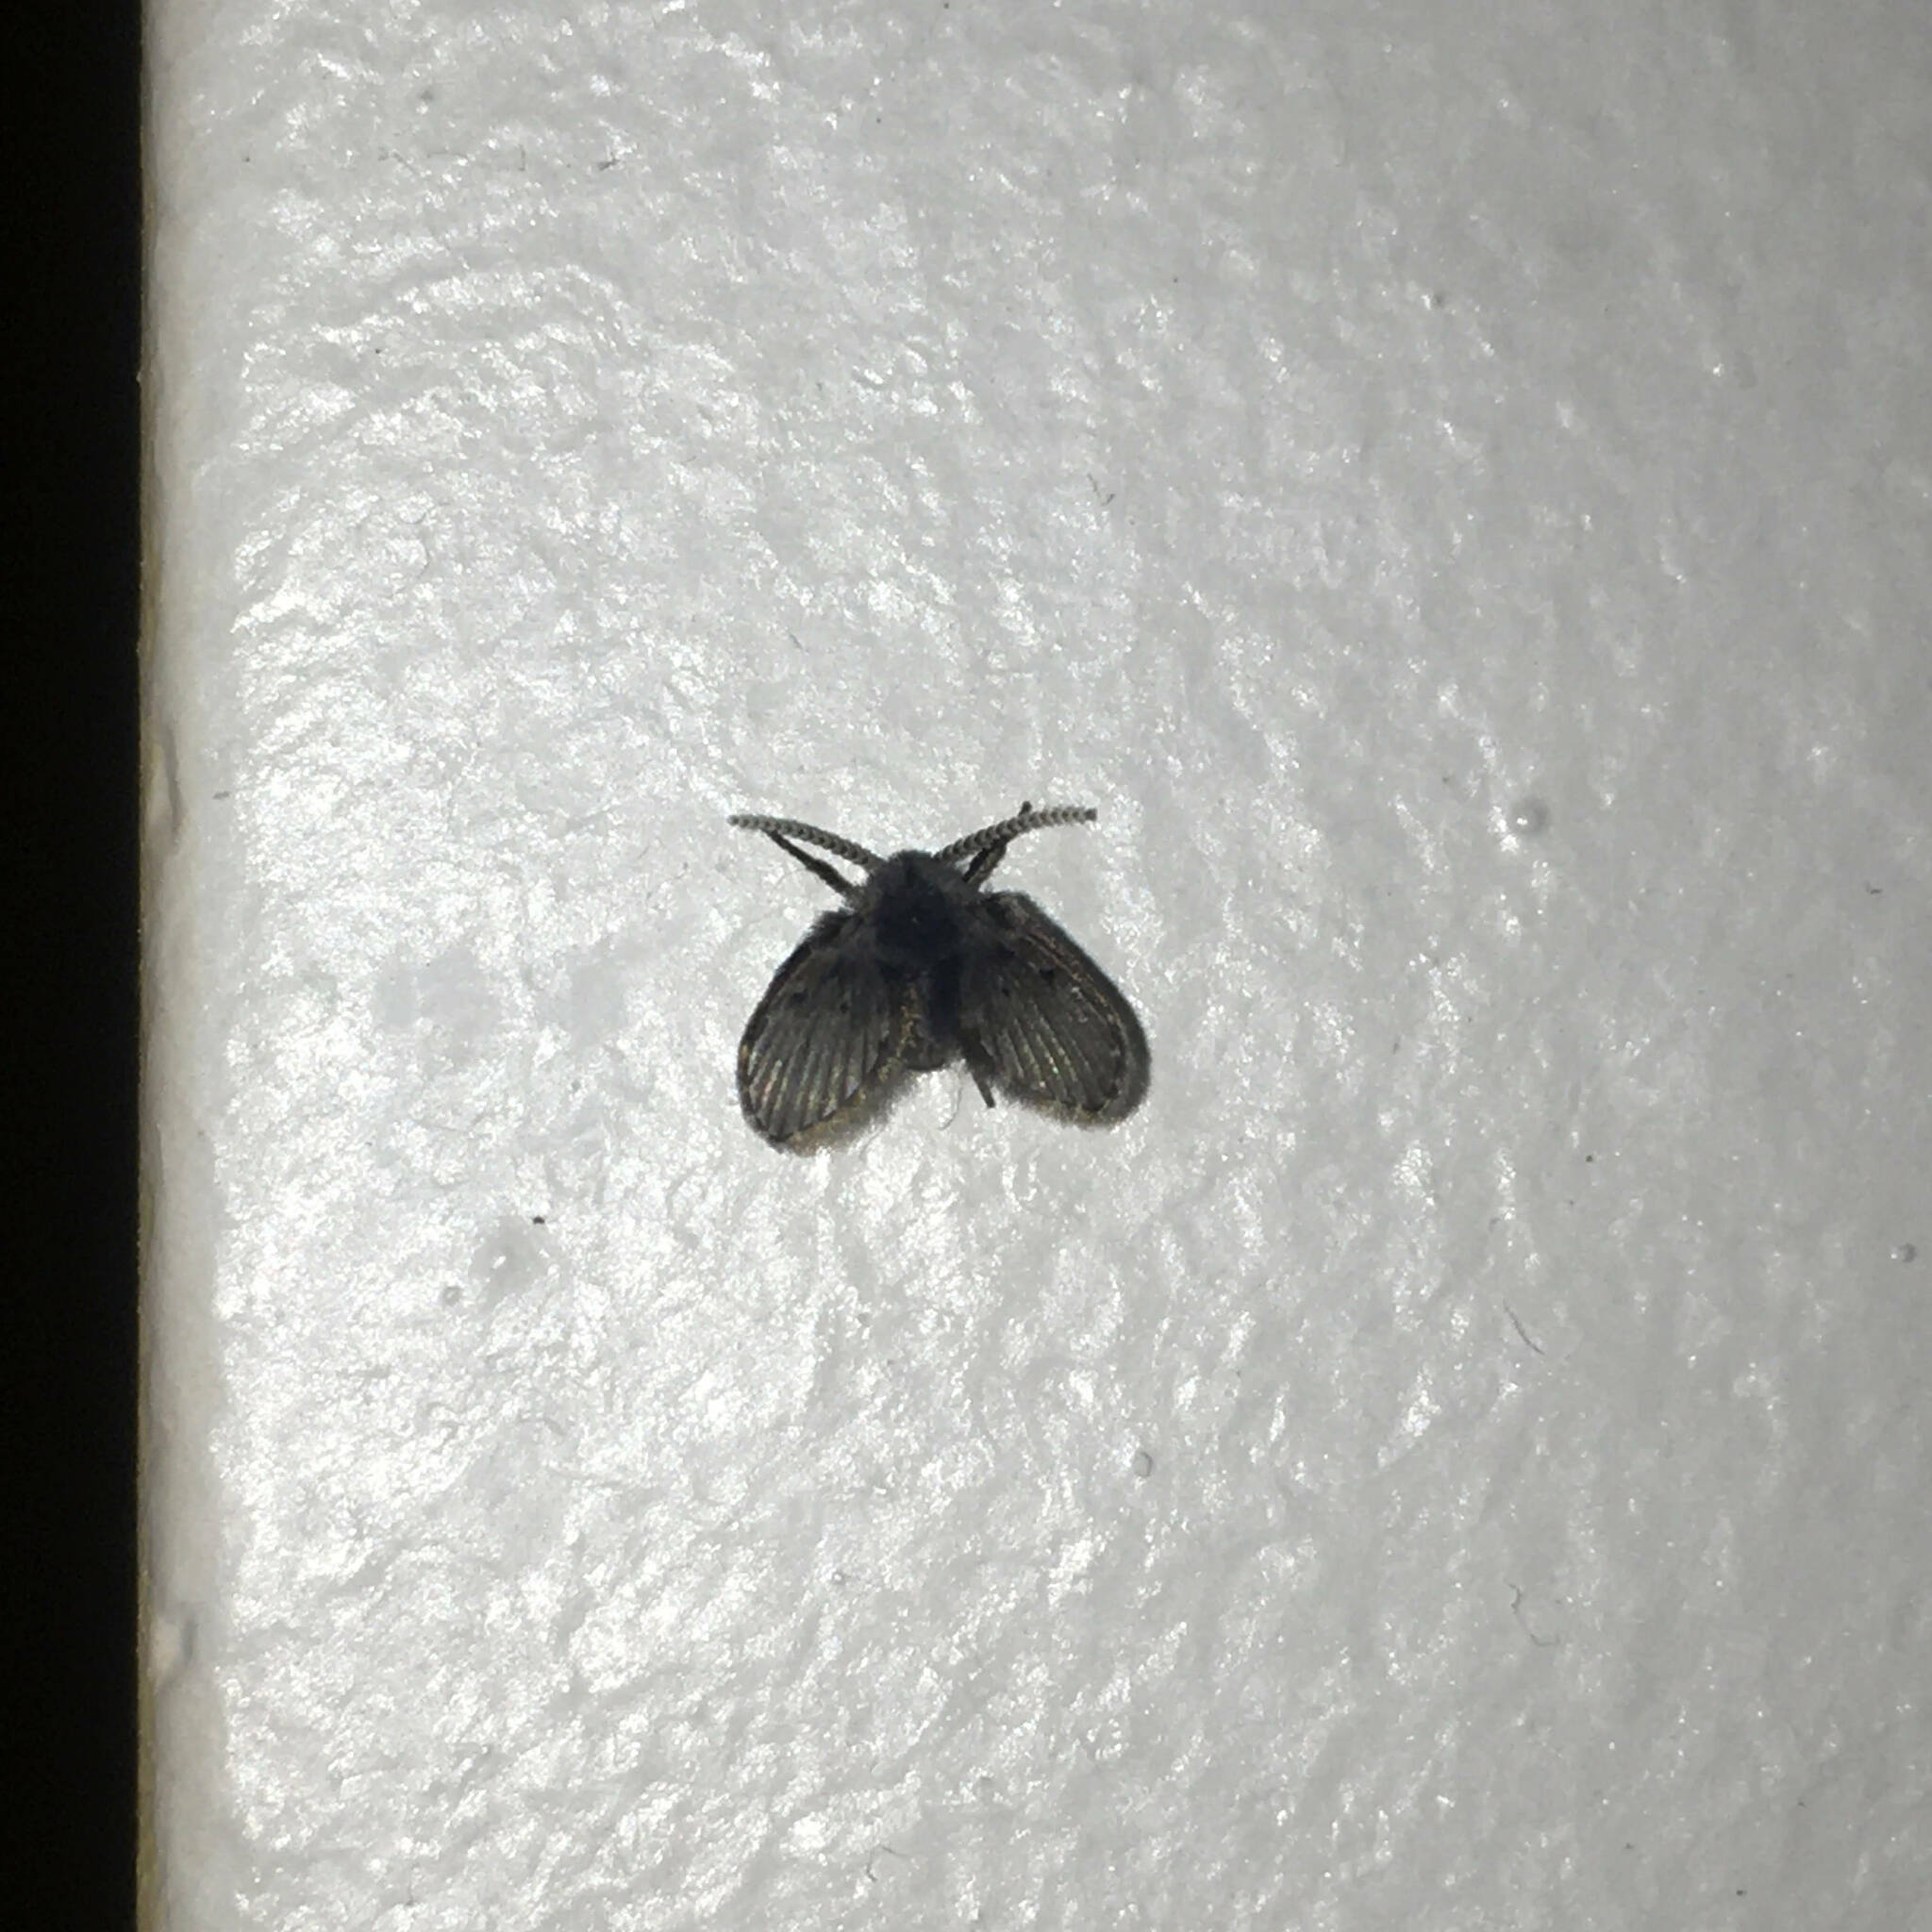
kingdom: Animalia
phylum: Arthropoda
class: Insecta
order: Diptera
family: Psychodidae
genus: Clogmia
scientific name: Clogmia albipunctatus
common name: White-spotted moth fly
